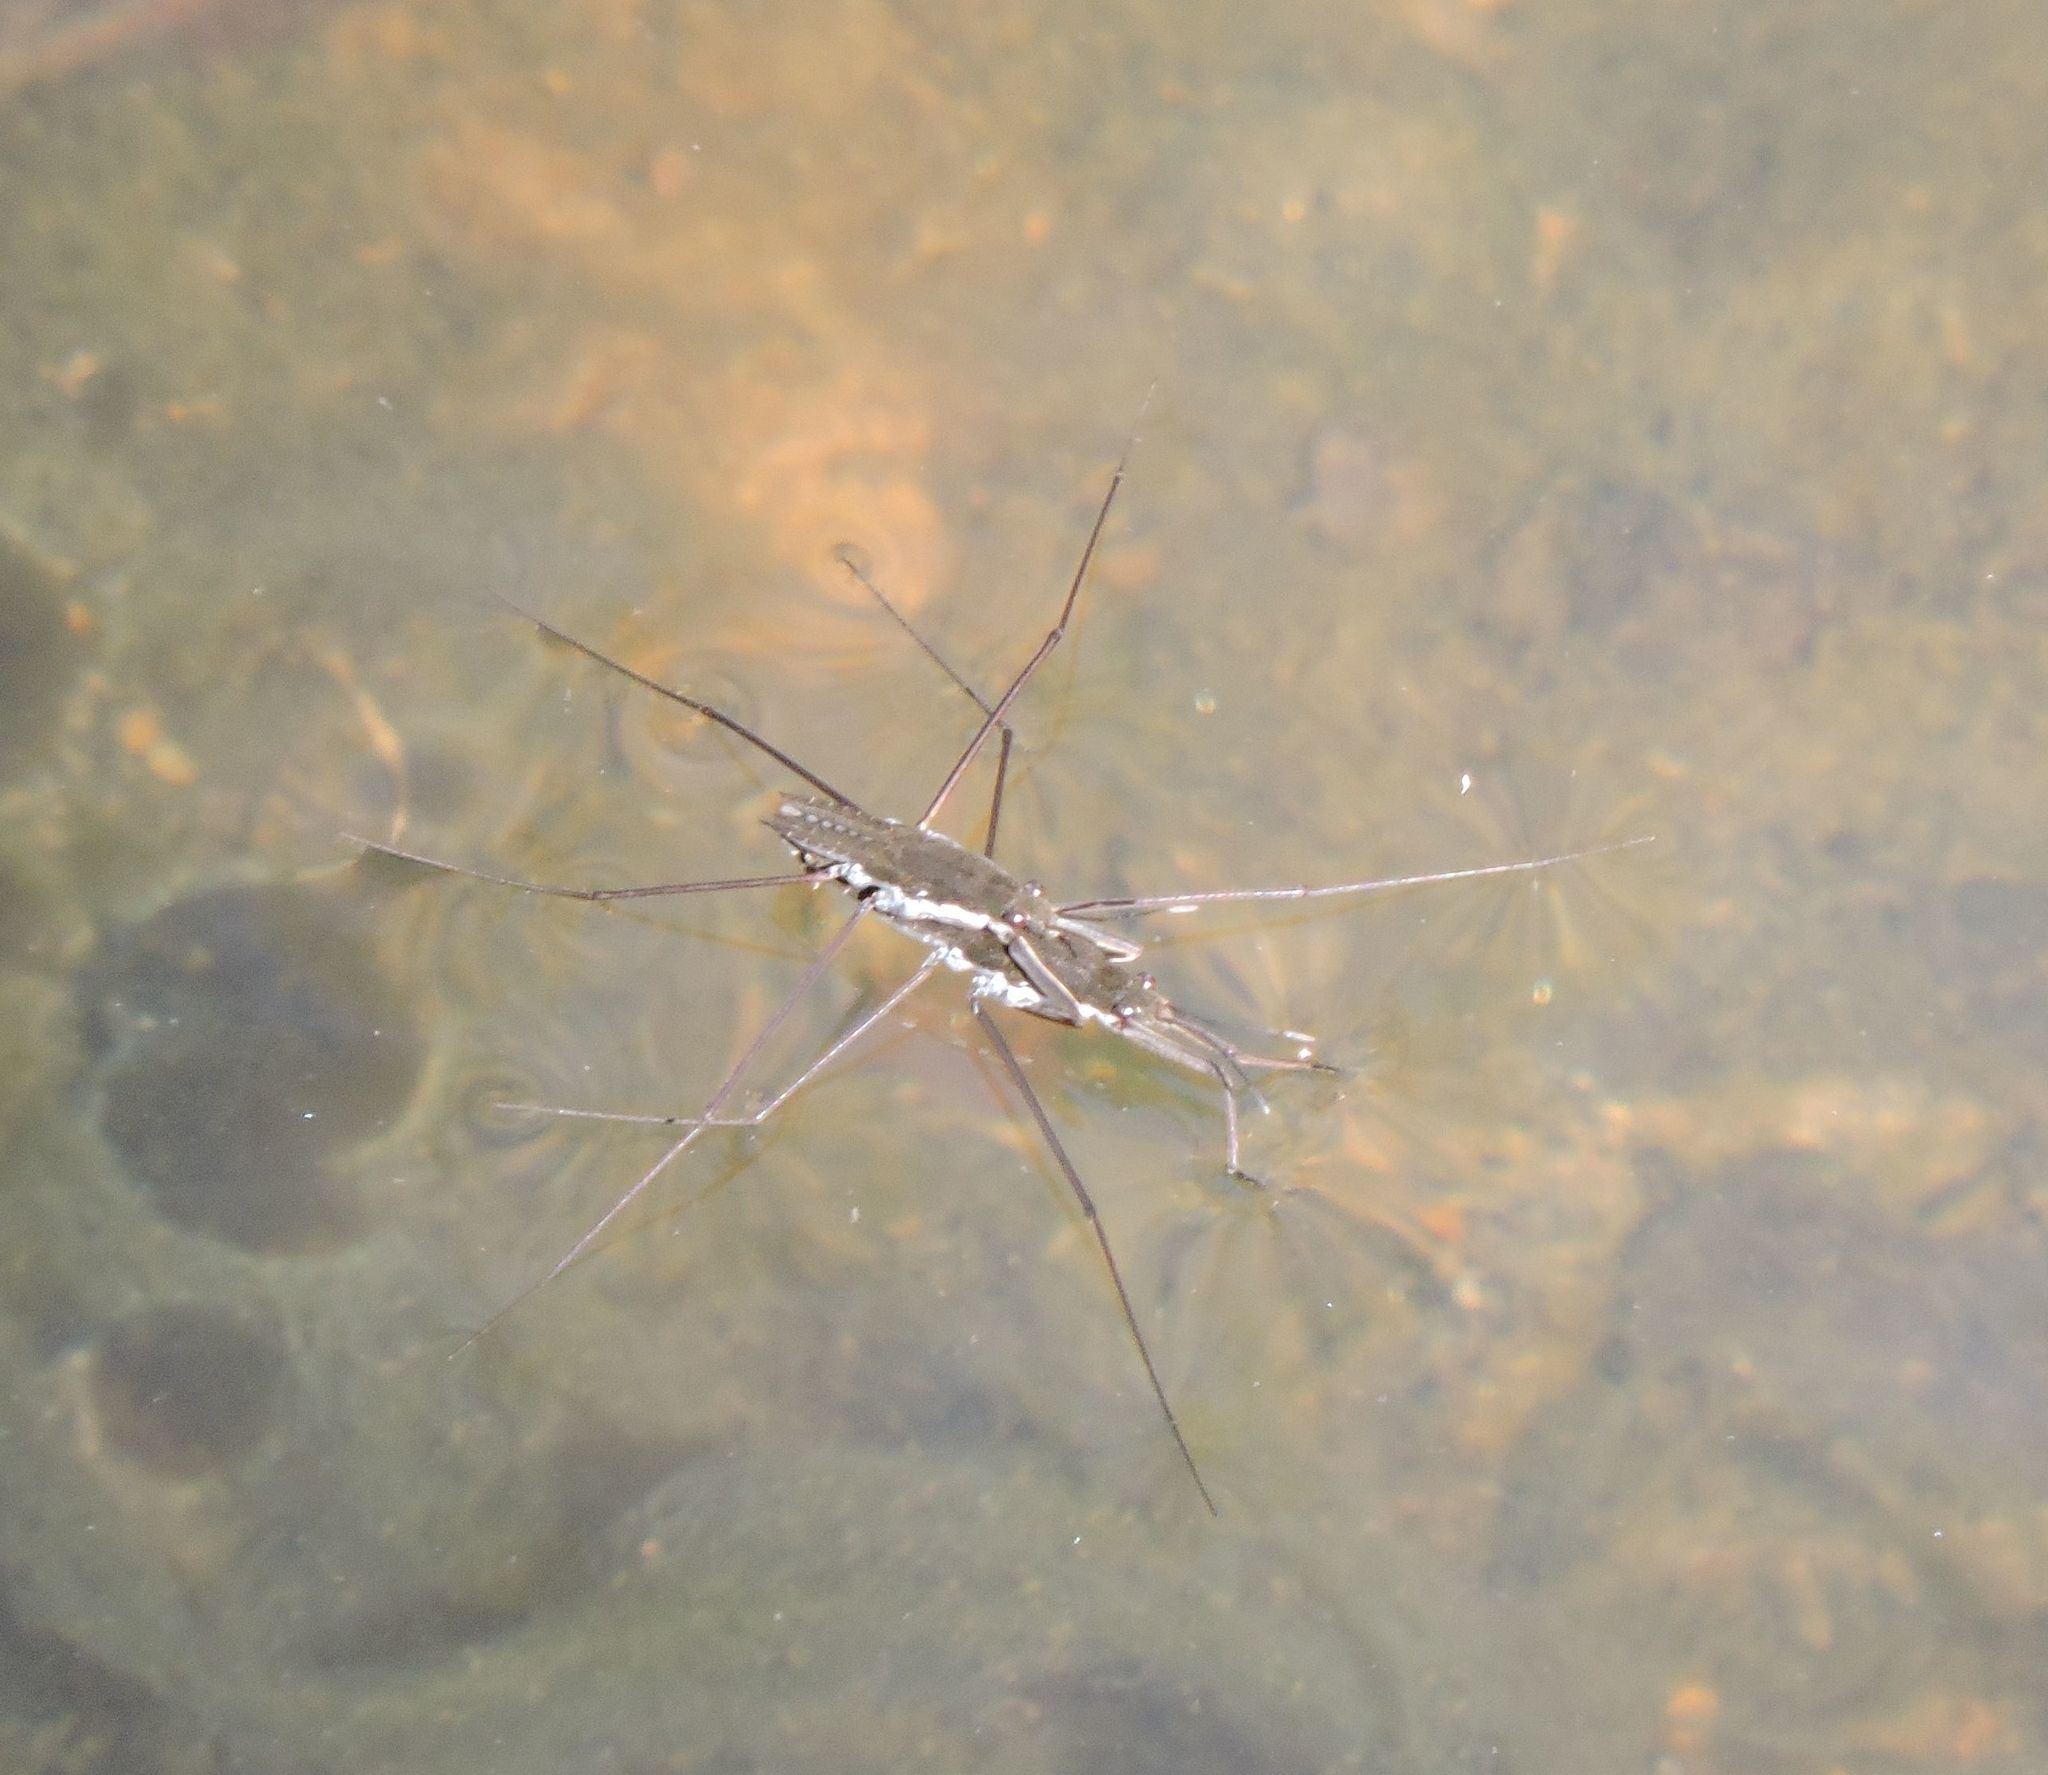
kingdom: Animalia
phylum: Arthropoda
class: Insecta
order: Hemiptera
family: Gerridae
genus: Aquarius
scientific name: Aquarius
